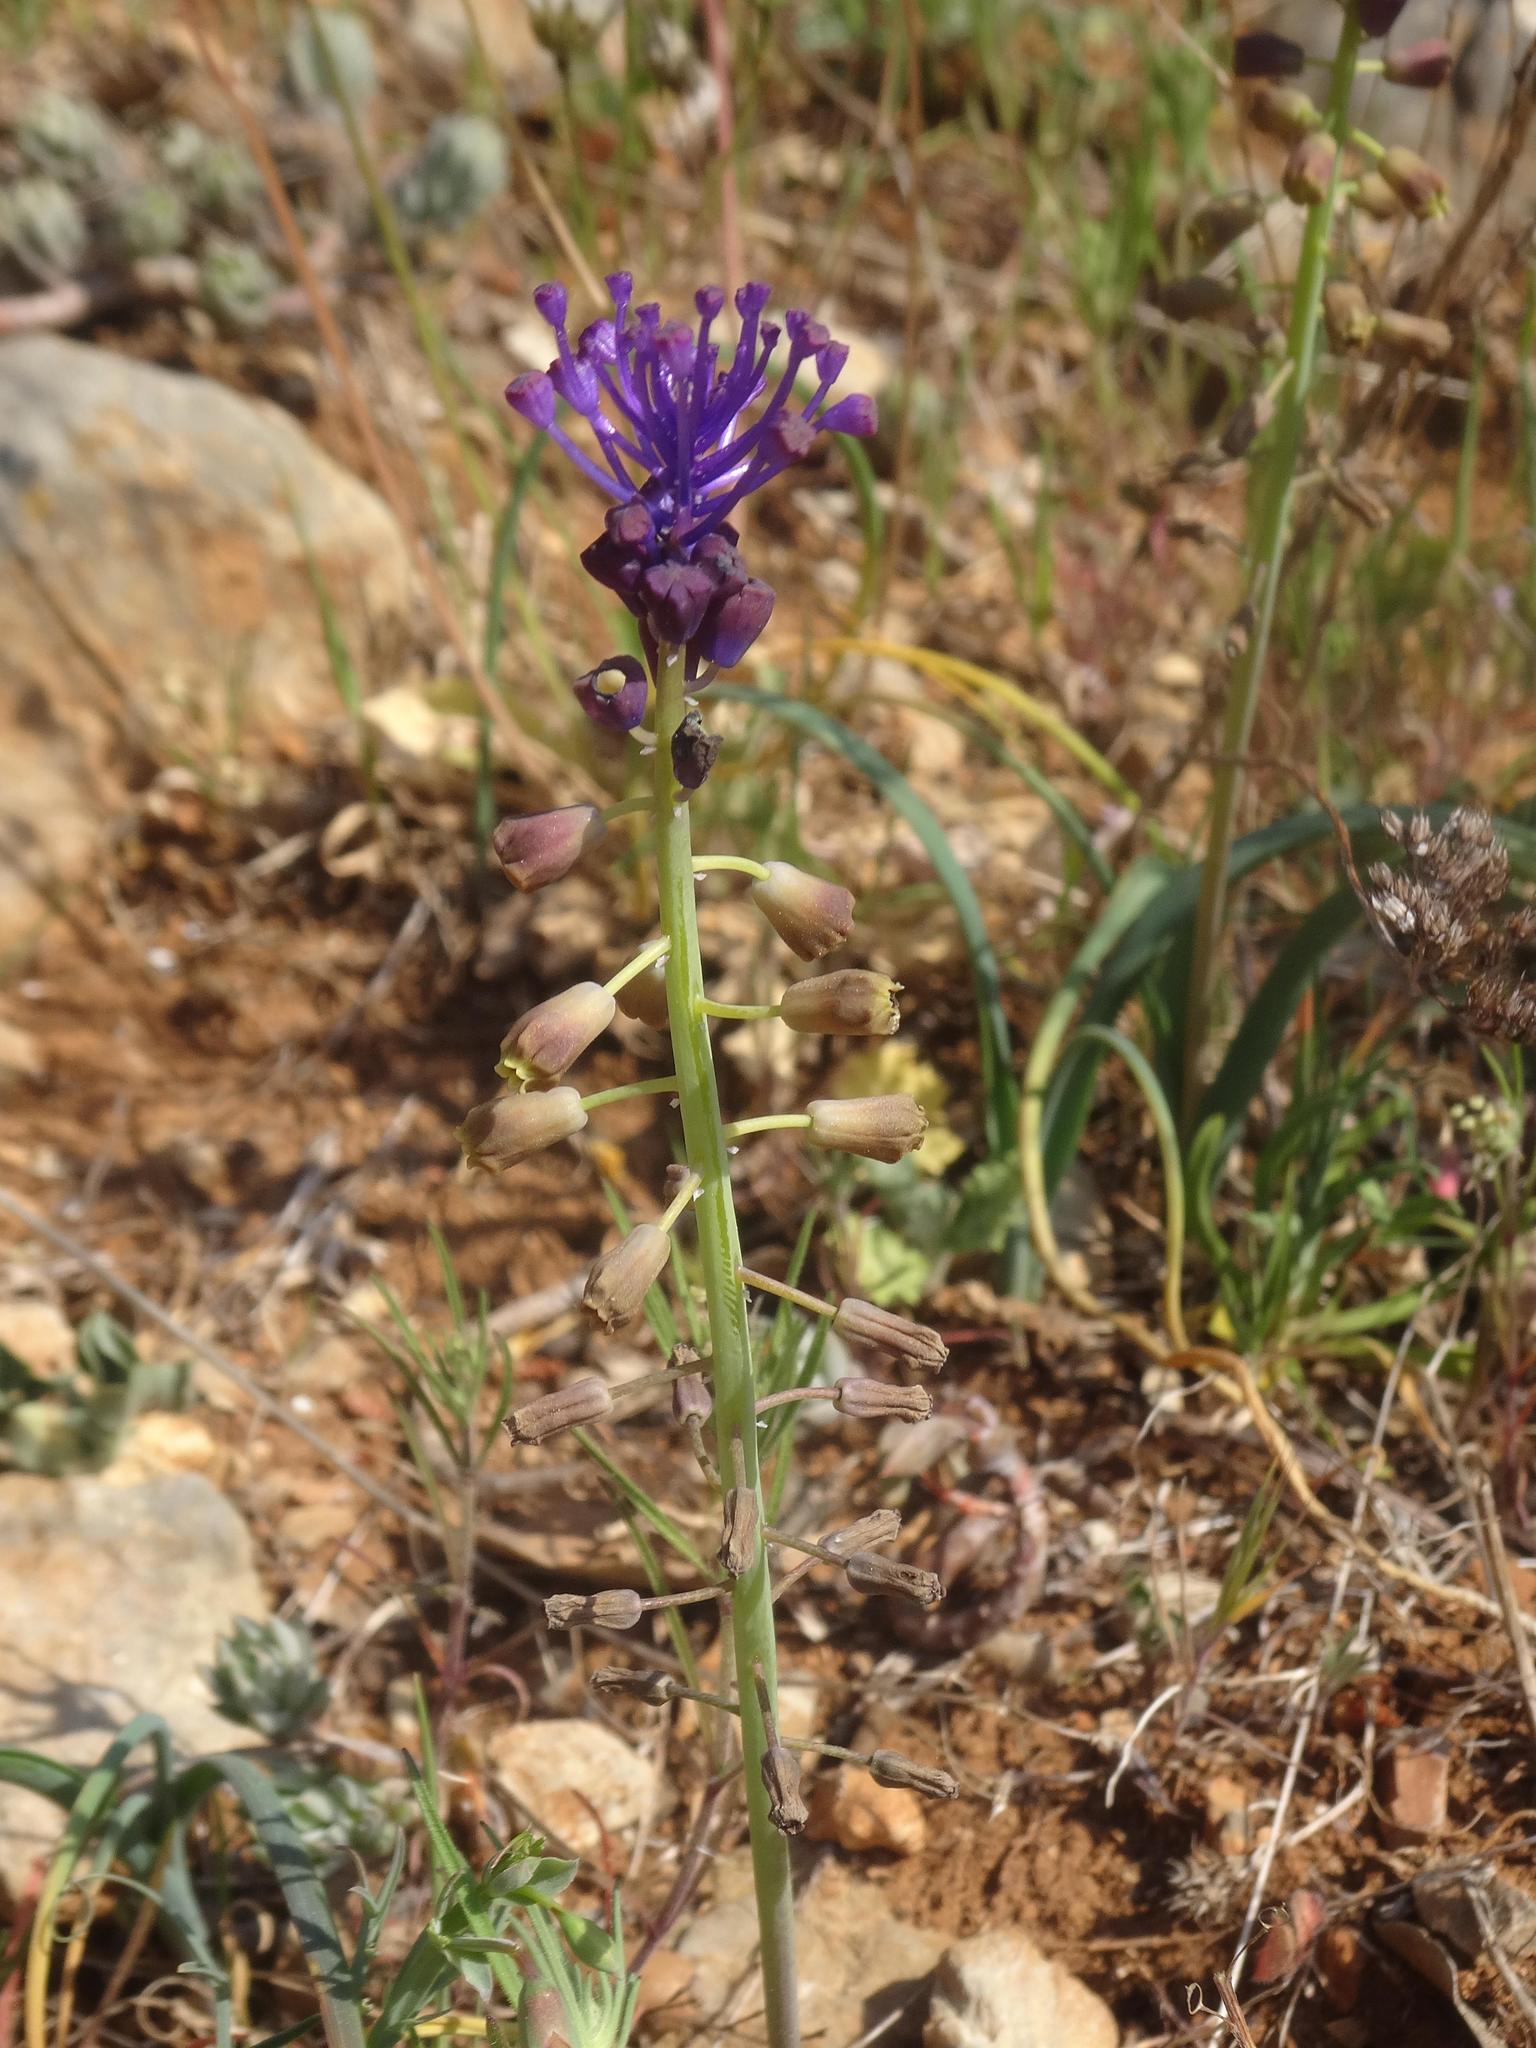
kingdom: Plantae
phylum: Tracheophyta
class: Liliopsida
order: Asparagales
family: Asparagaceae
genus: Muscari
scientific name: Muscari comosum
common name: Tassel hyacinth
